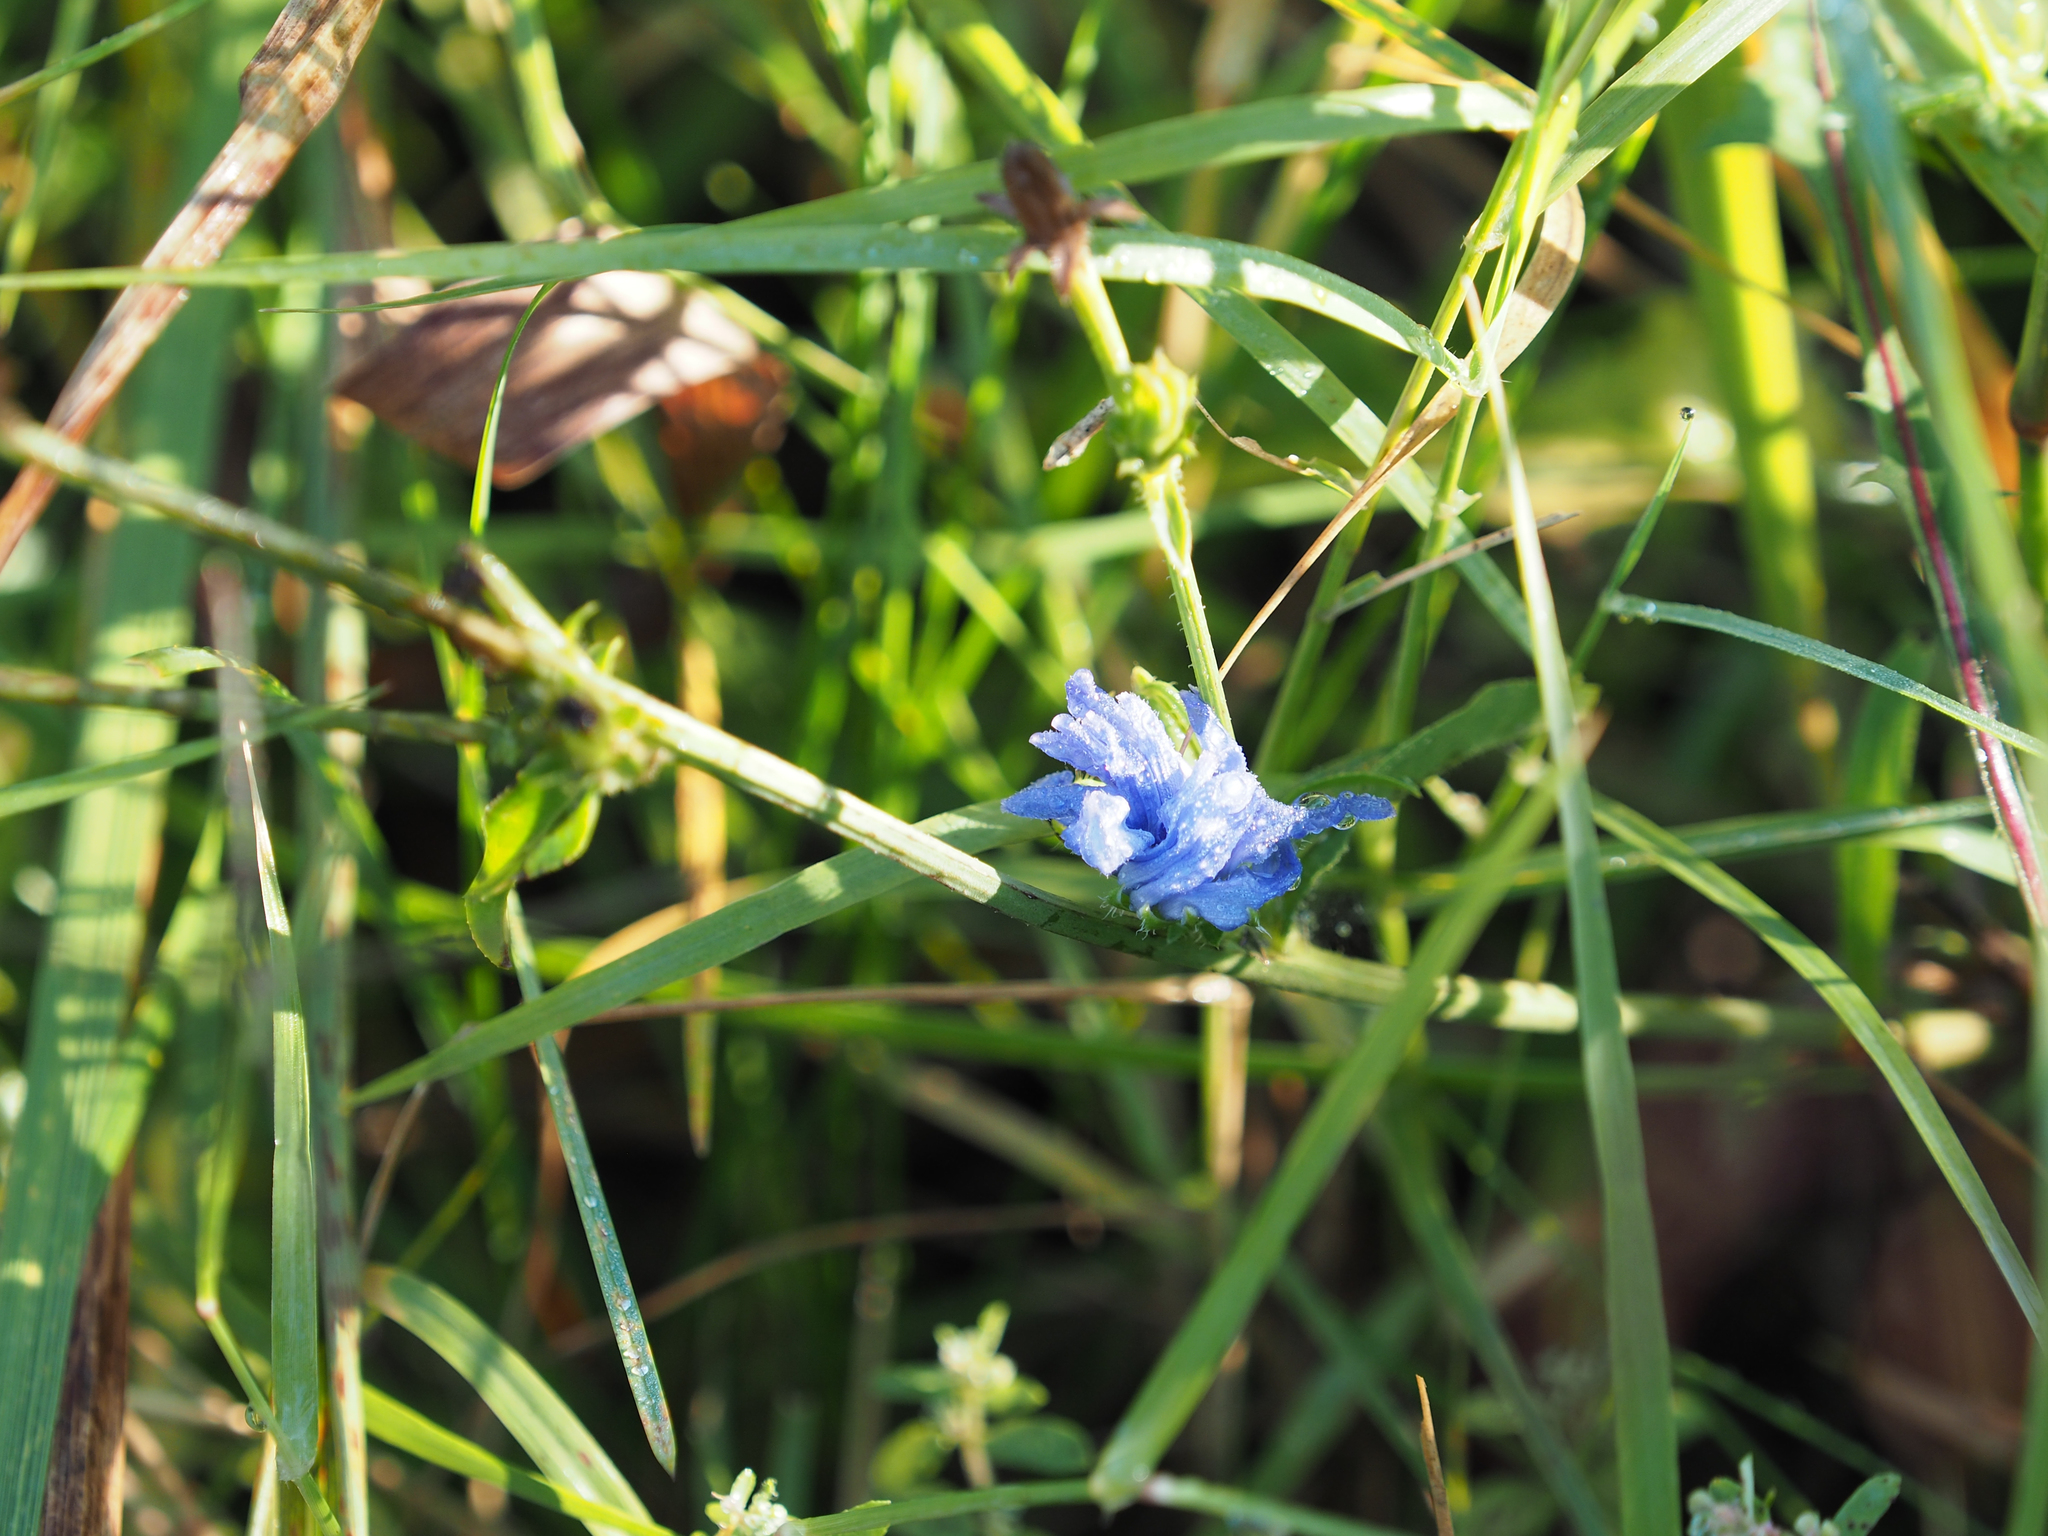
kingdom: Plantae
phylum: Tracheophyta
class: Magnoliopsida
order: Asterales
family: Asteraceae
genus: Cichorium
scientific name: Cichorium intybus
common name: Chicory
